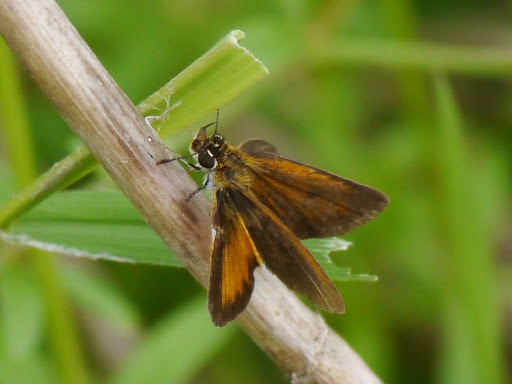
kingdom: Animalia
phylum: Arthropoda
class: Insecta
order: Lepidoptera
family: Hesperiidae
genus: Ancyloxypha
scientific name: Ancyloxypha numitor
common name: Least skipper
